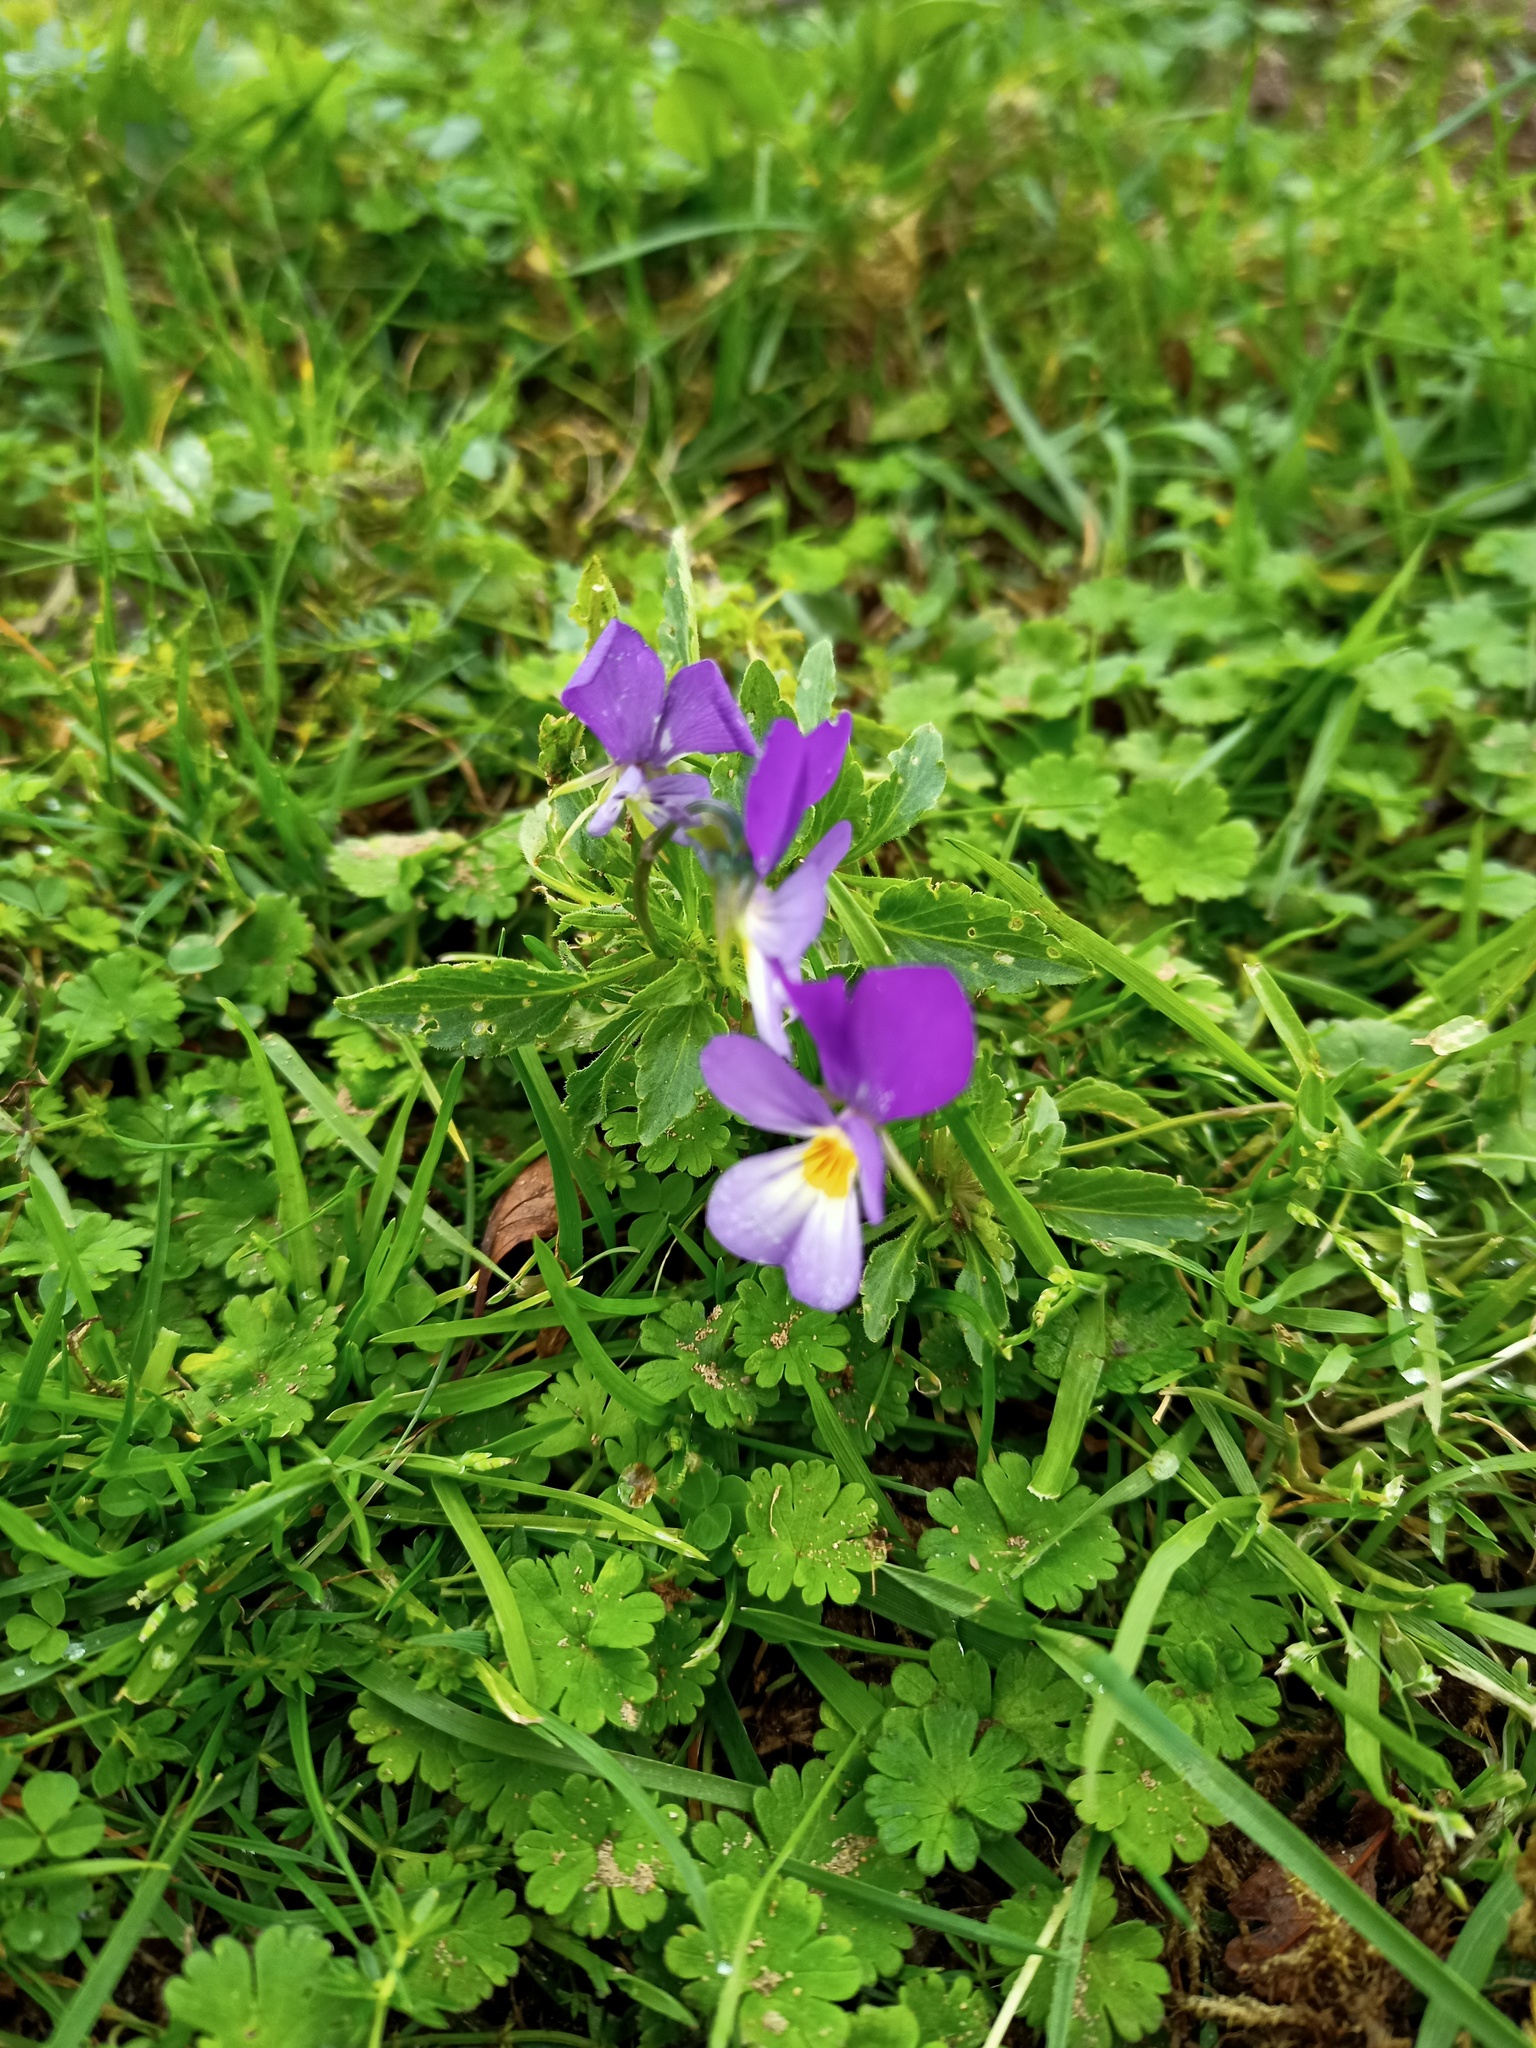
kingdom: Plantae
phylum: Tracheophyta
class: Magnoliopsida
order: Malpighiales
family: Violaceae
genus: Viola
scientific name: Viola tricolor
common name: Pansy
